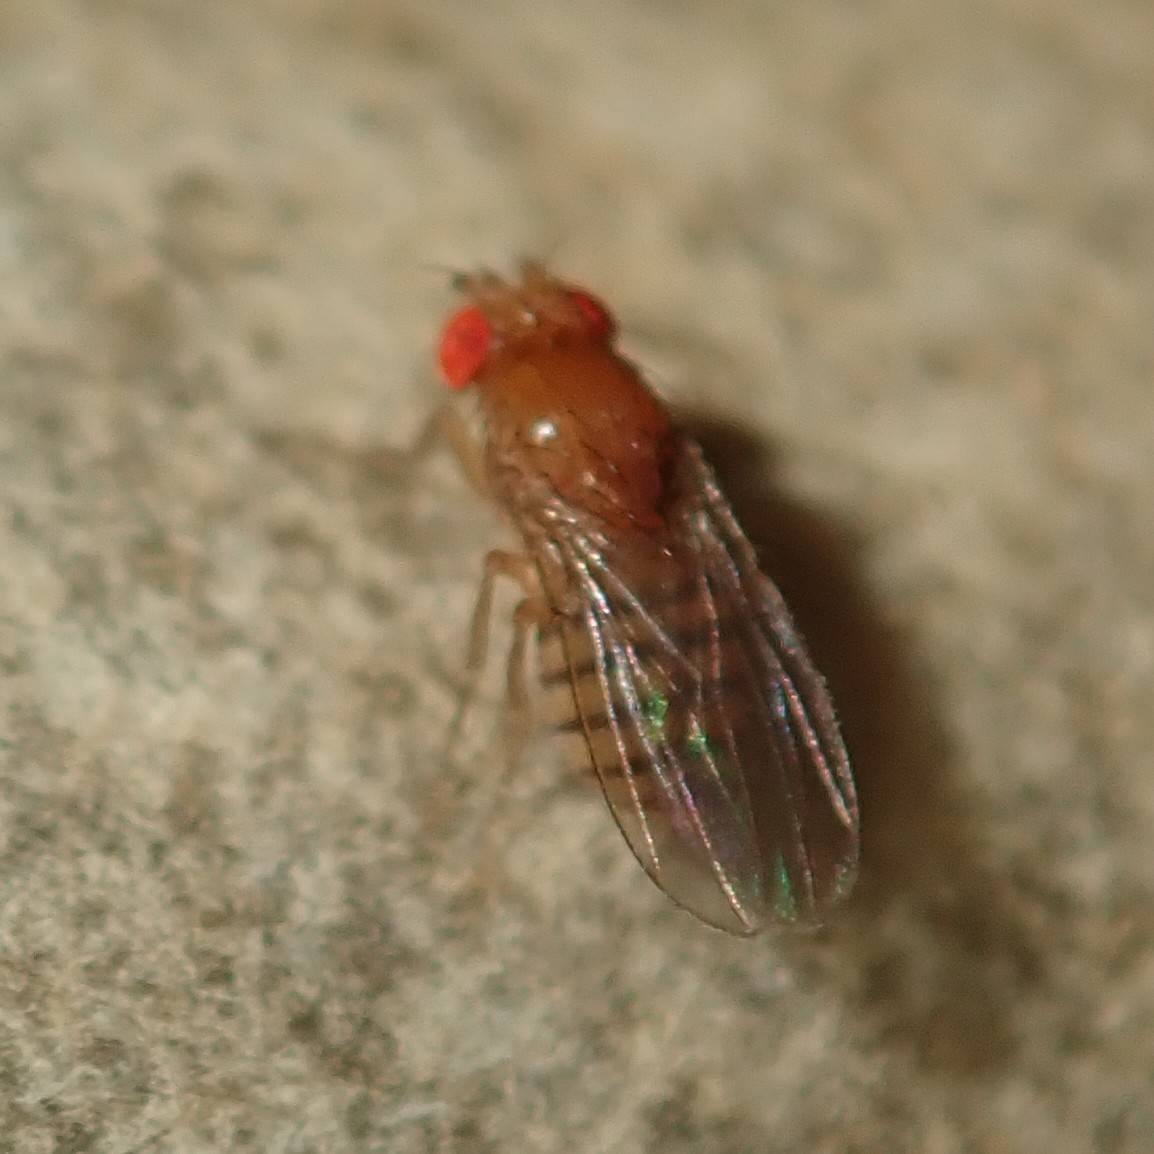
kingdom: Animalia
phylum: Arthropoda
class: Insecta
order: Diptera
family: Drosophilidae
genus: Drosophila
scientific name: Drosophila melanogaster
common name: Pomace fly
